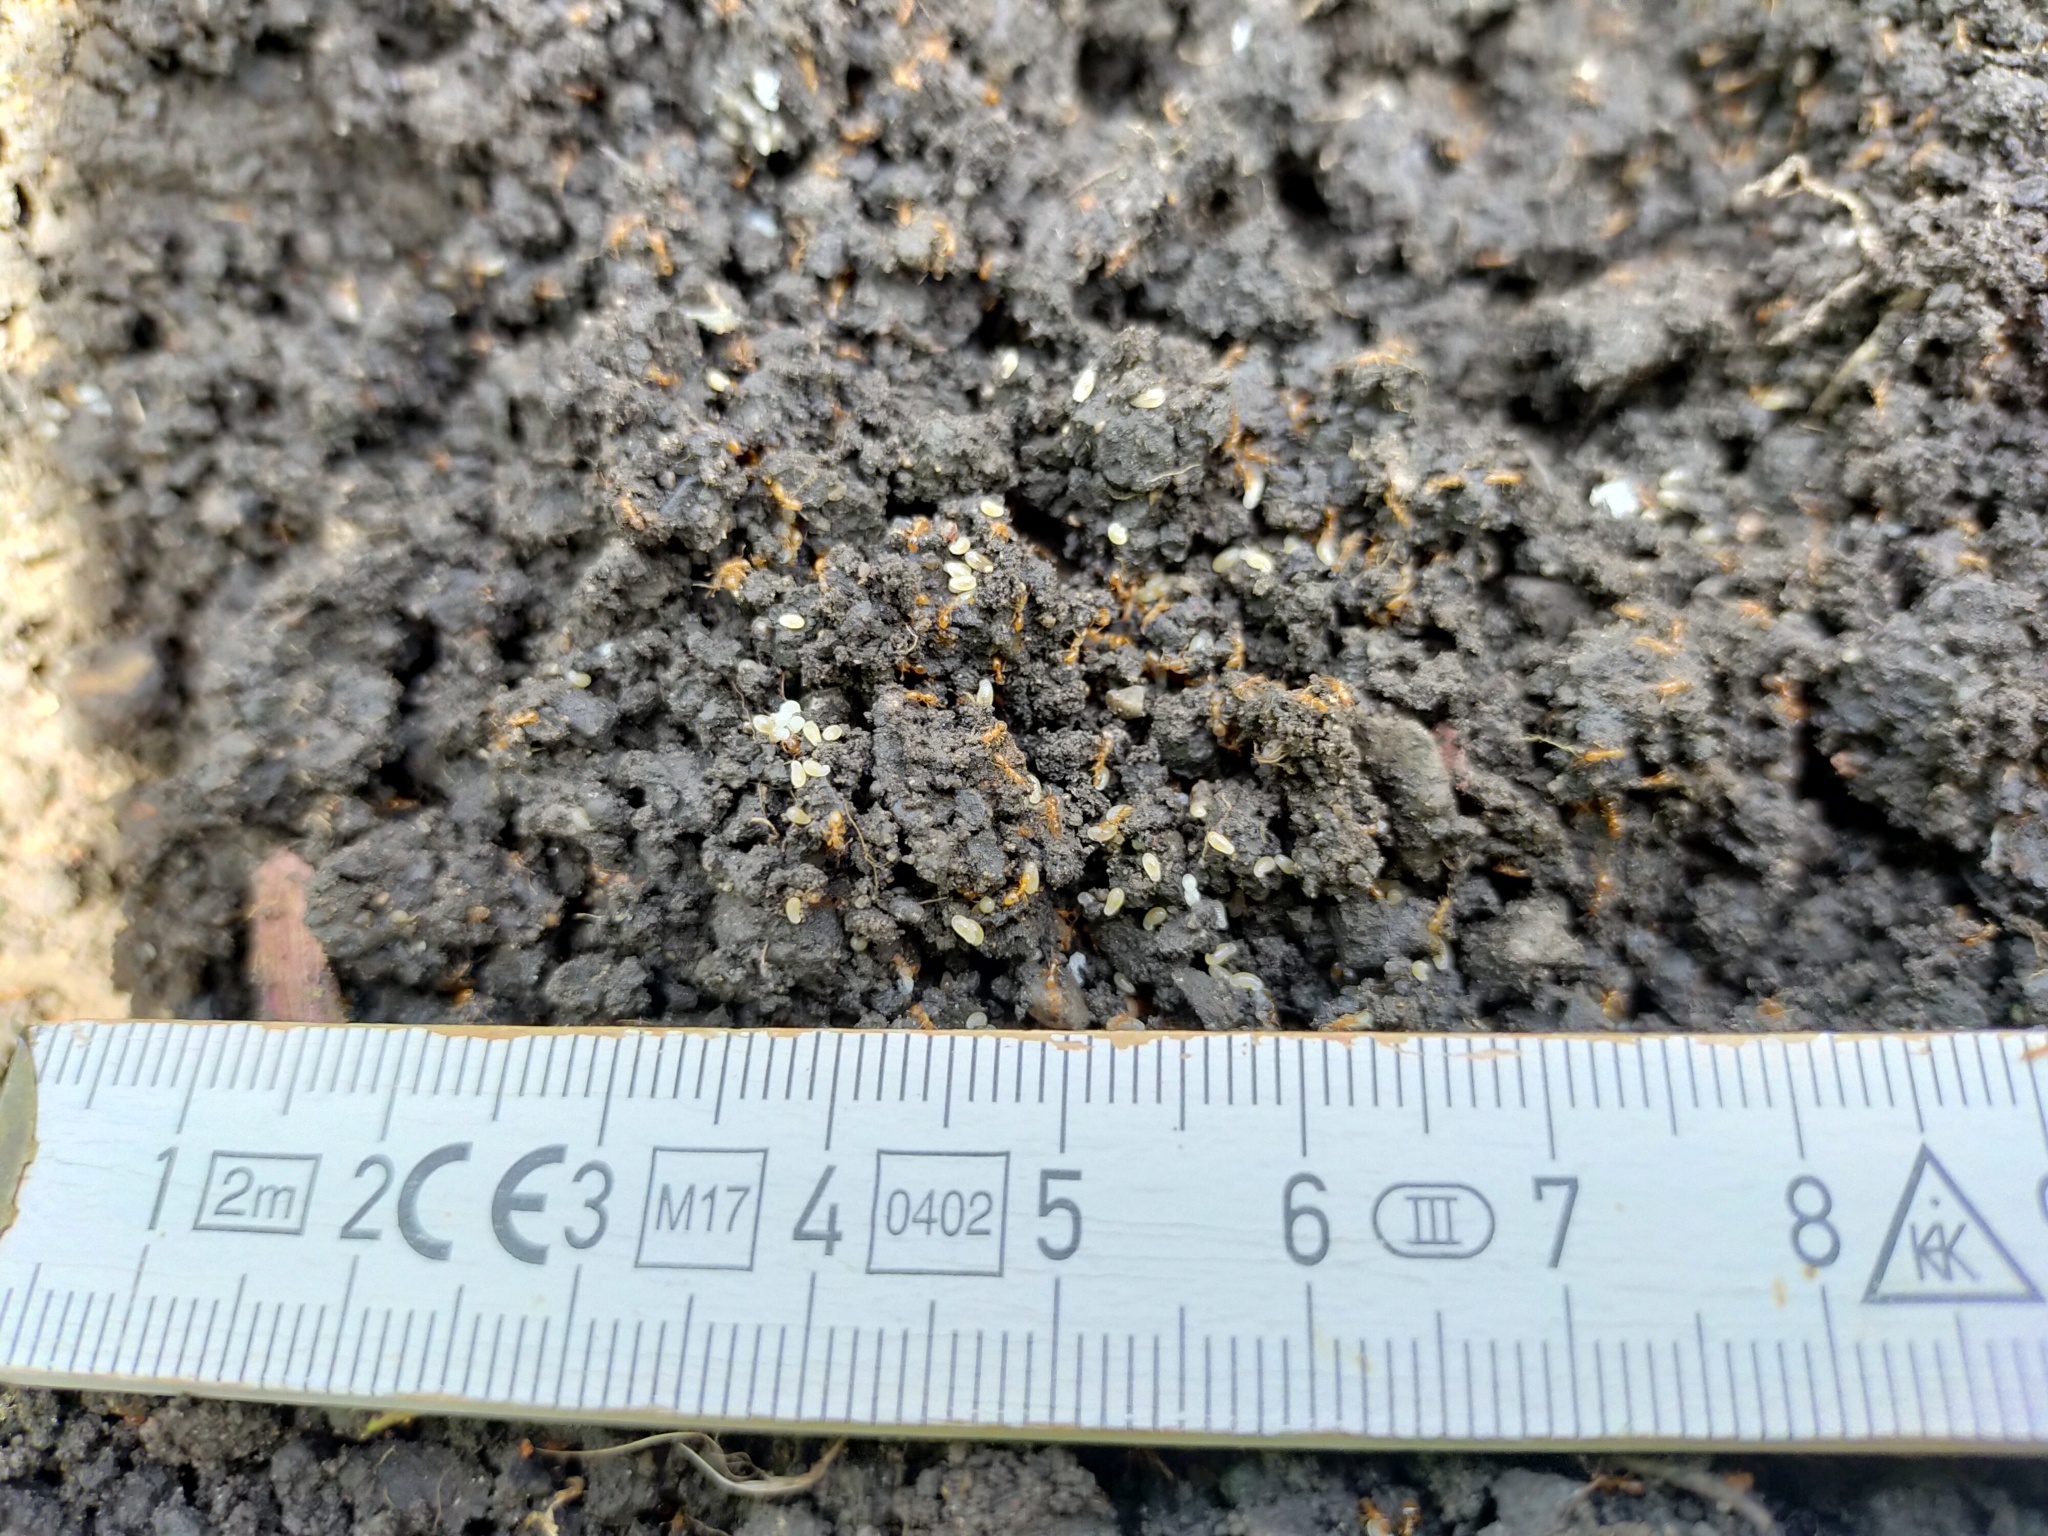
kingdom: Animalia
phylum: Arthropoda
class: Insecta
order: Hymenoptera
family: Formicidae
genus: Solenopsis
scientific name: Solenopsis fugax
